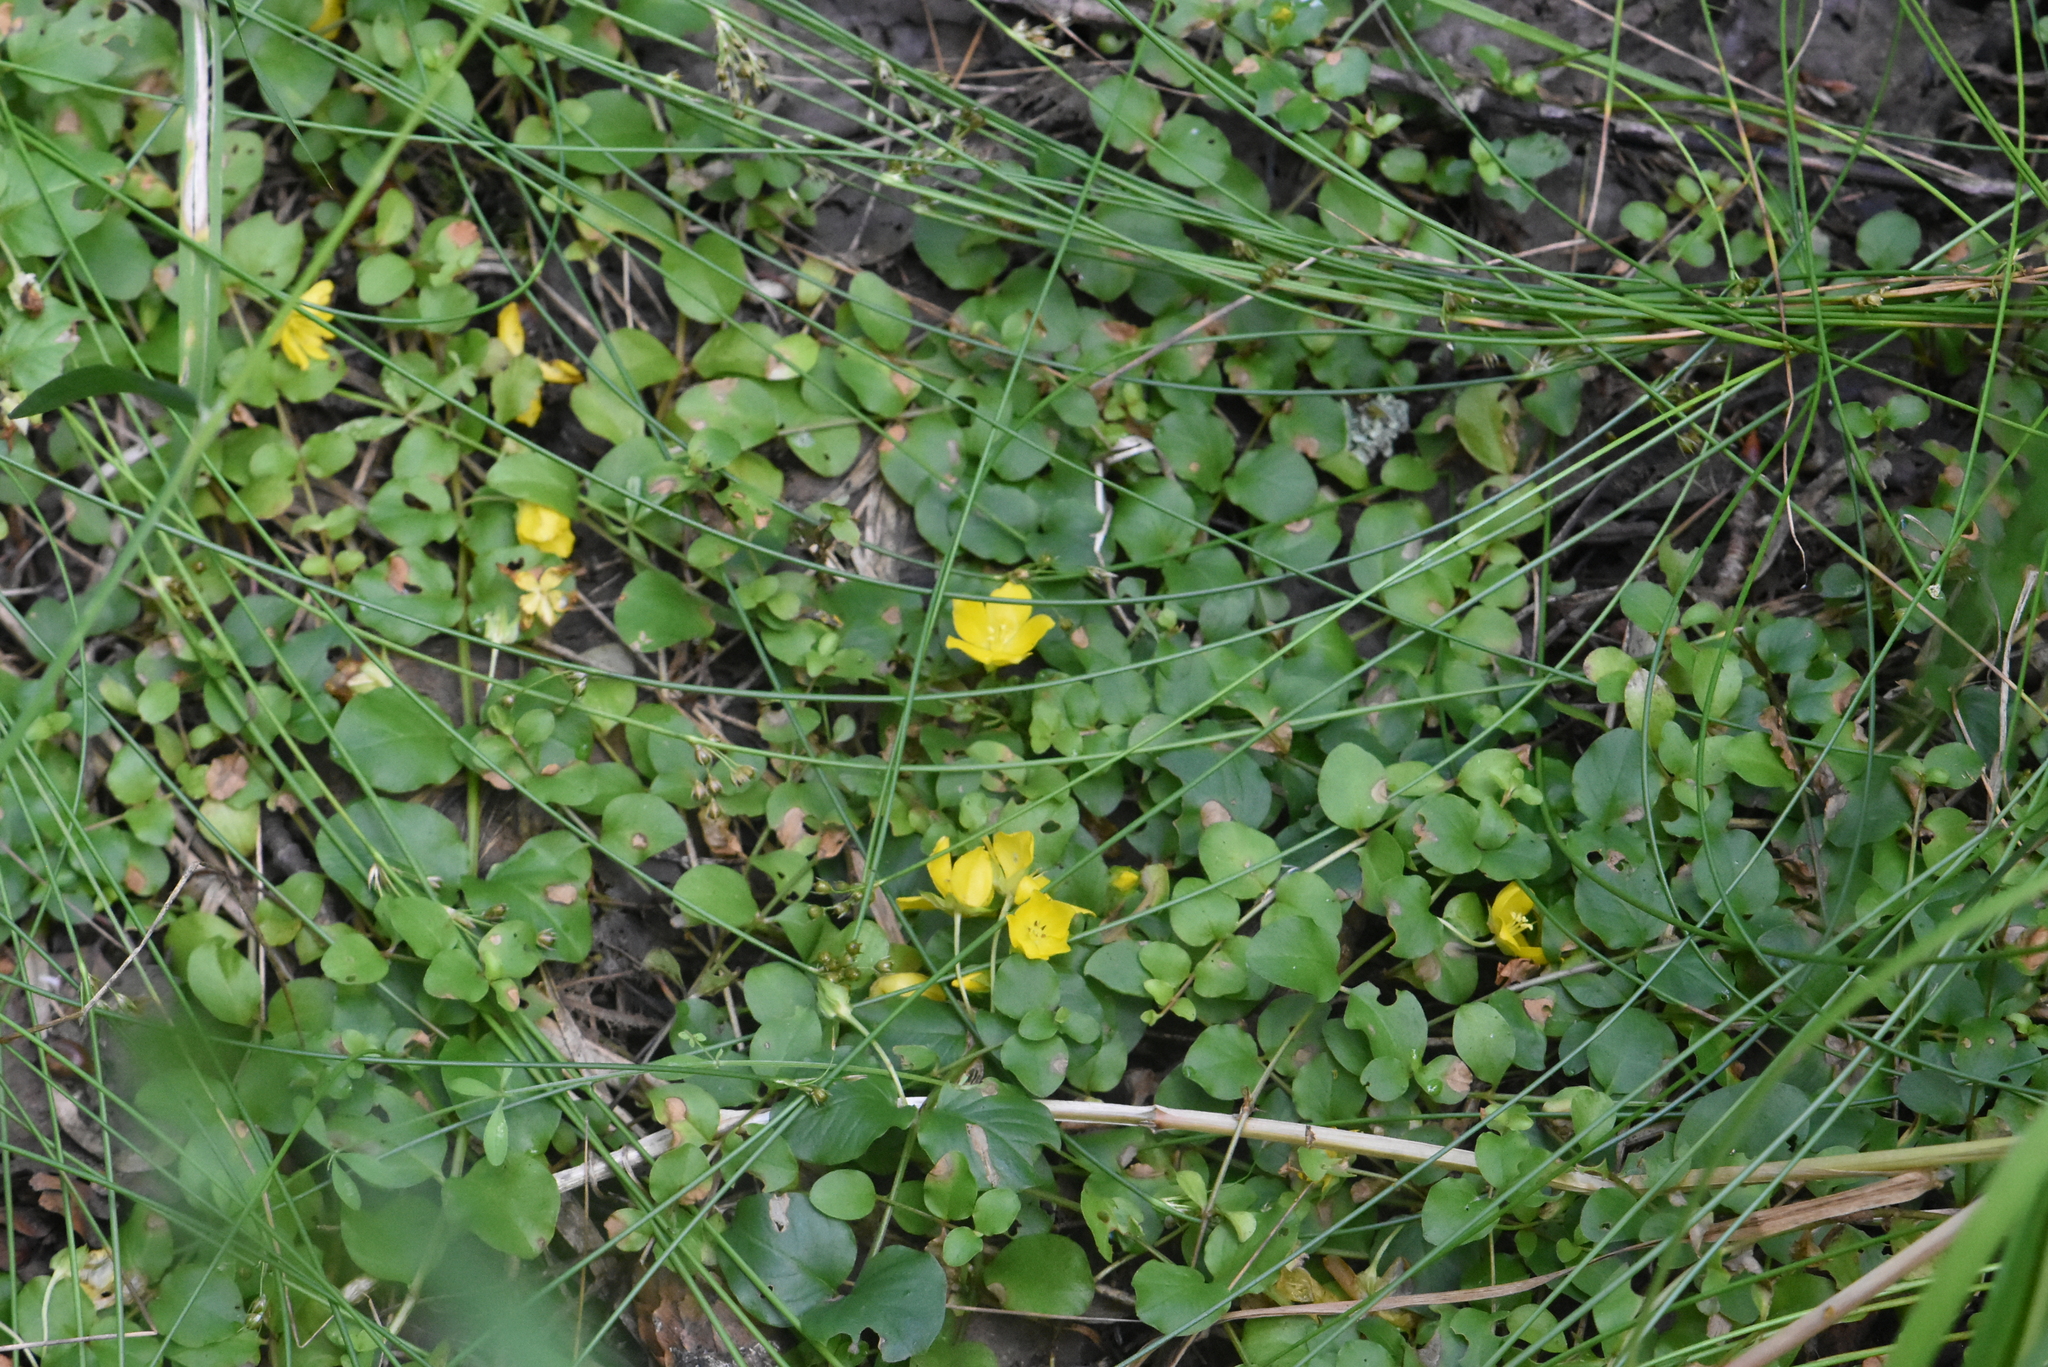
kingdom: Plantae
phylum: Tracheophyta
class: Magnoliopsida
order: Ericales
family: Primulaceae
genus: Lysimachia
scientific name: Lysimachia nummularia
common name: Moneywort
